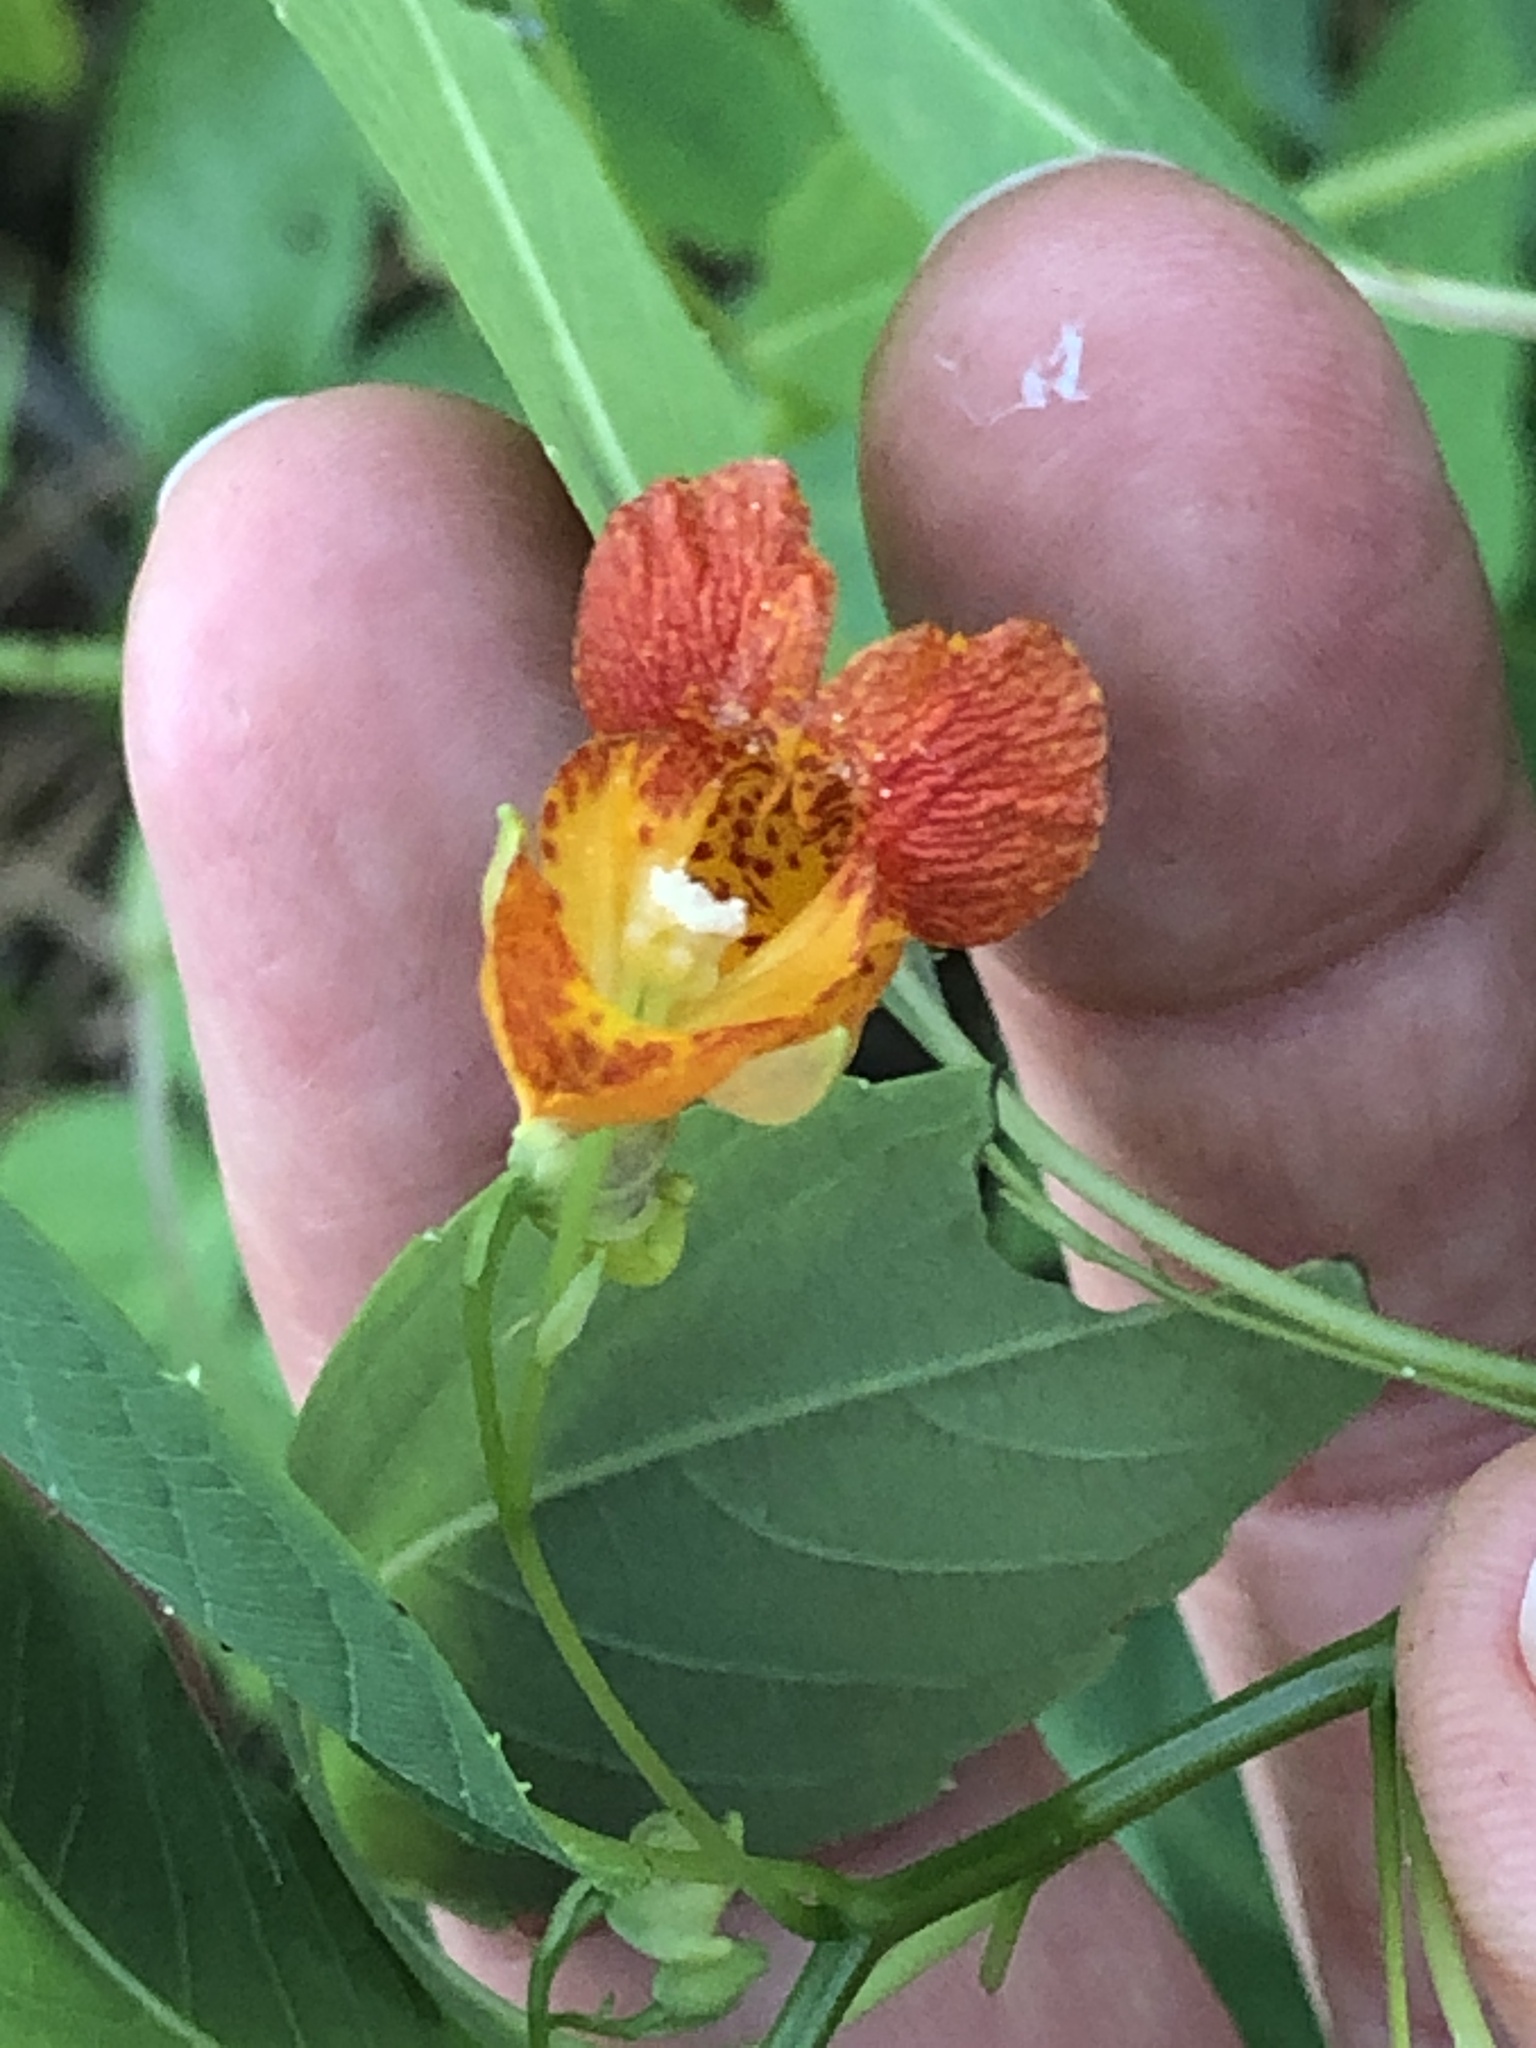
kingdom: Plantae
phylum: Tracheophyta
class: Magnoliopsida
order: Ericales
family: Balsaminaceae
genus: Impatiens
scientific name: Impatiens capensis
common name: Orange balsam
